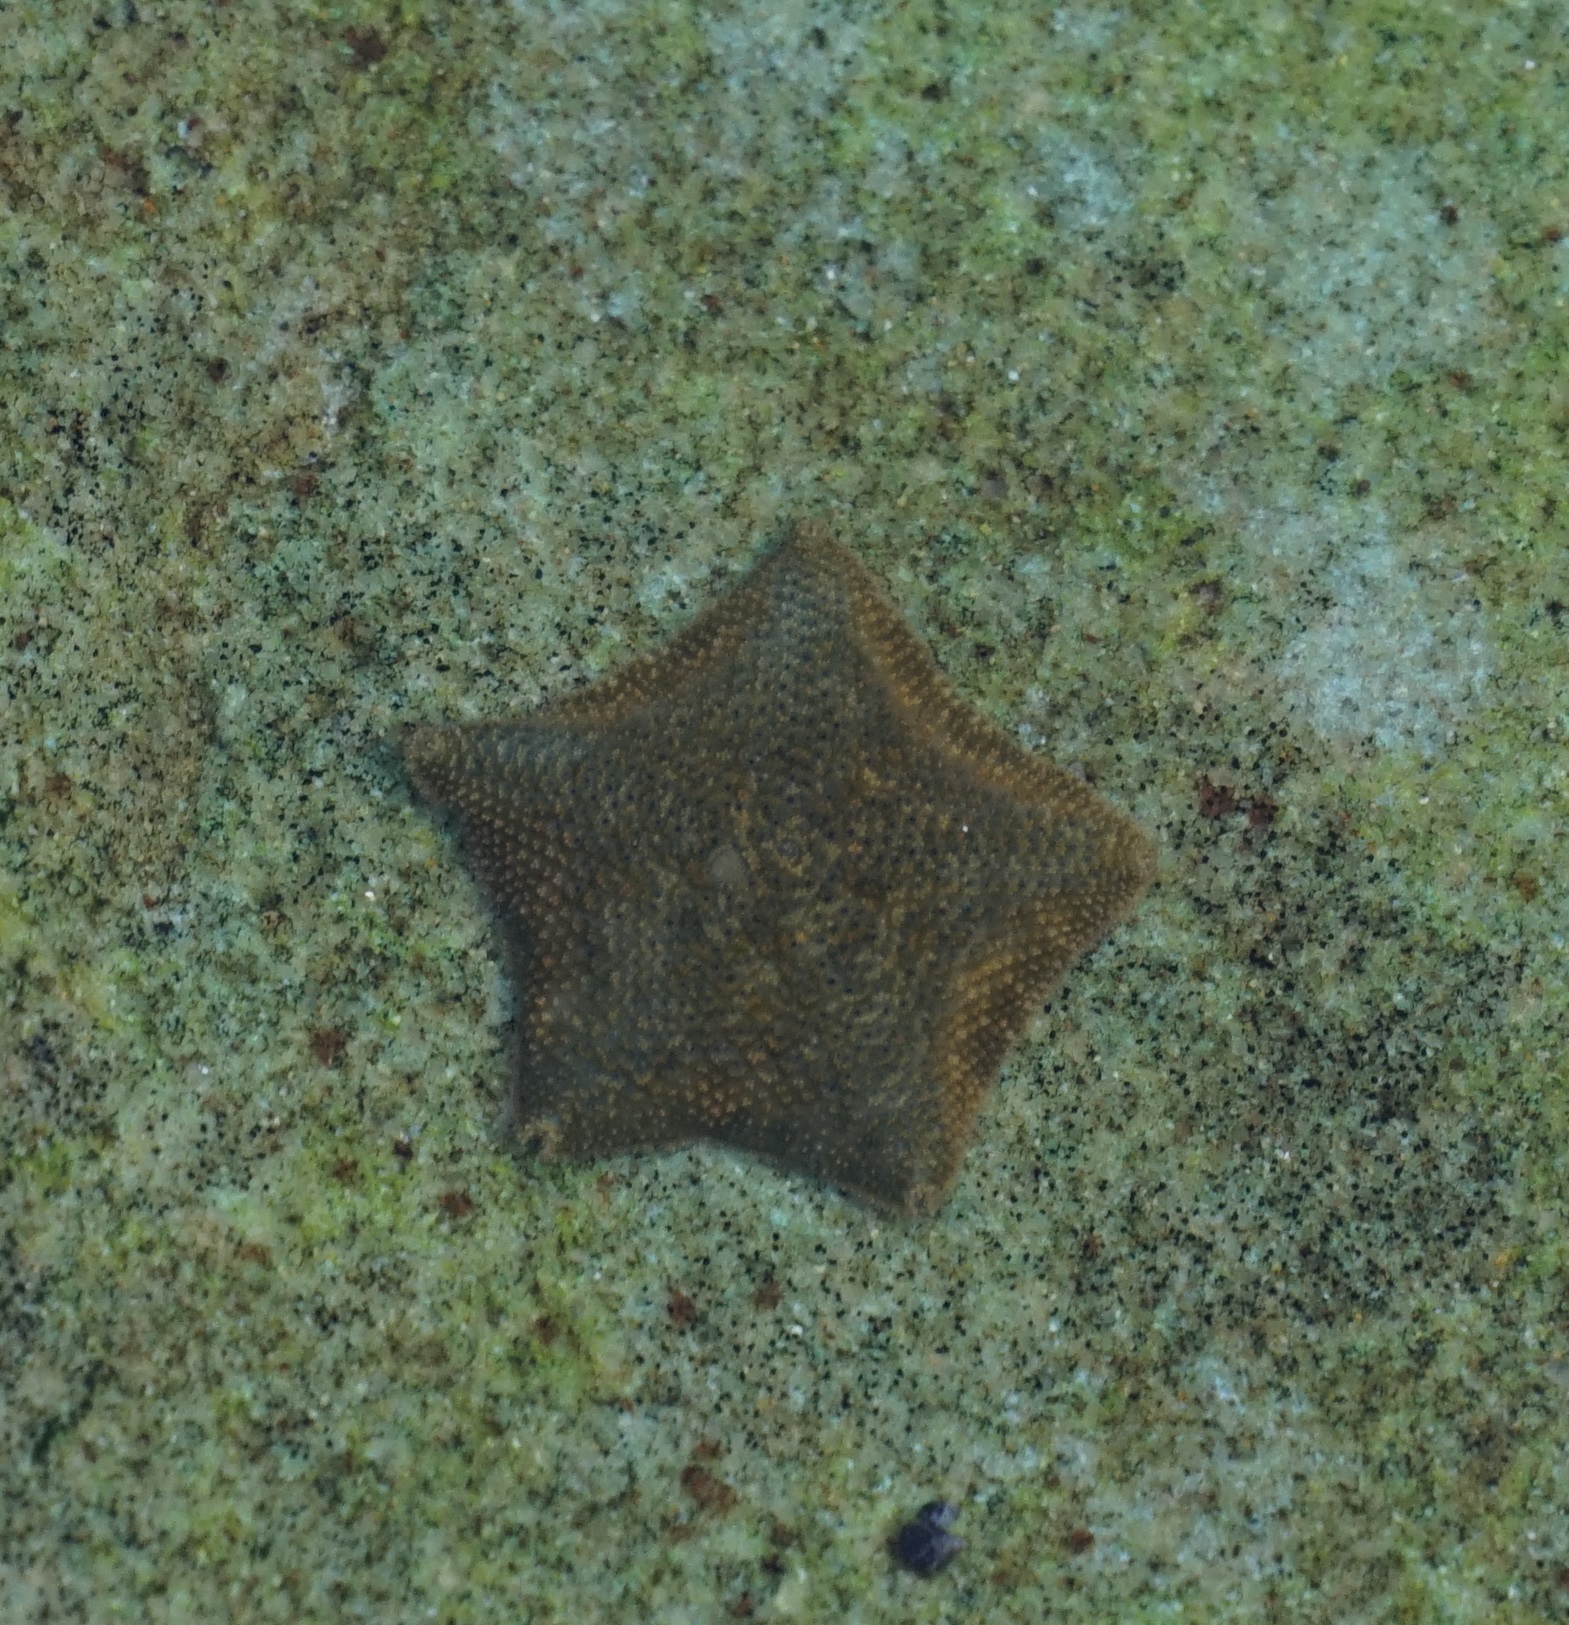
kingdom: Animalia
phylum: Echinodermata
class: Asteroidea
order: Valvatida
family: Asterinidae
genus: Parvulastra
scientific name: Parvulastra exigua
